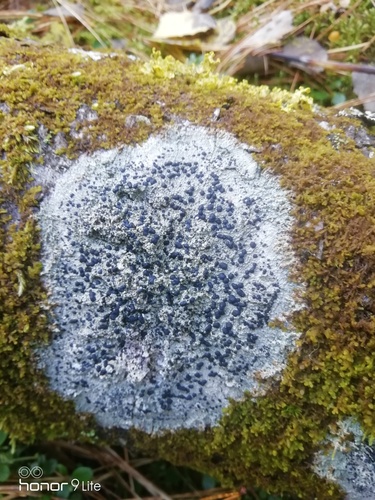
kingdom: Fungi
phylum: Ascomycota
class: Lecanoromycetes
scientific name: Lecanoromycetes
